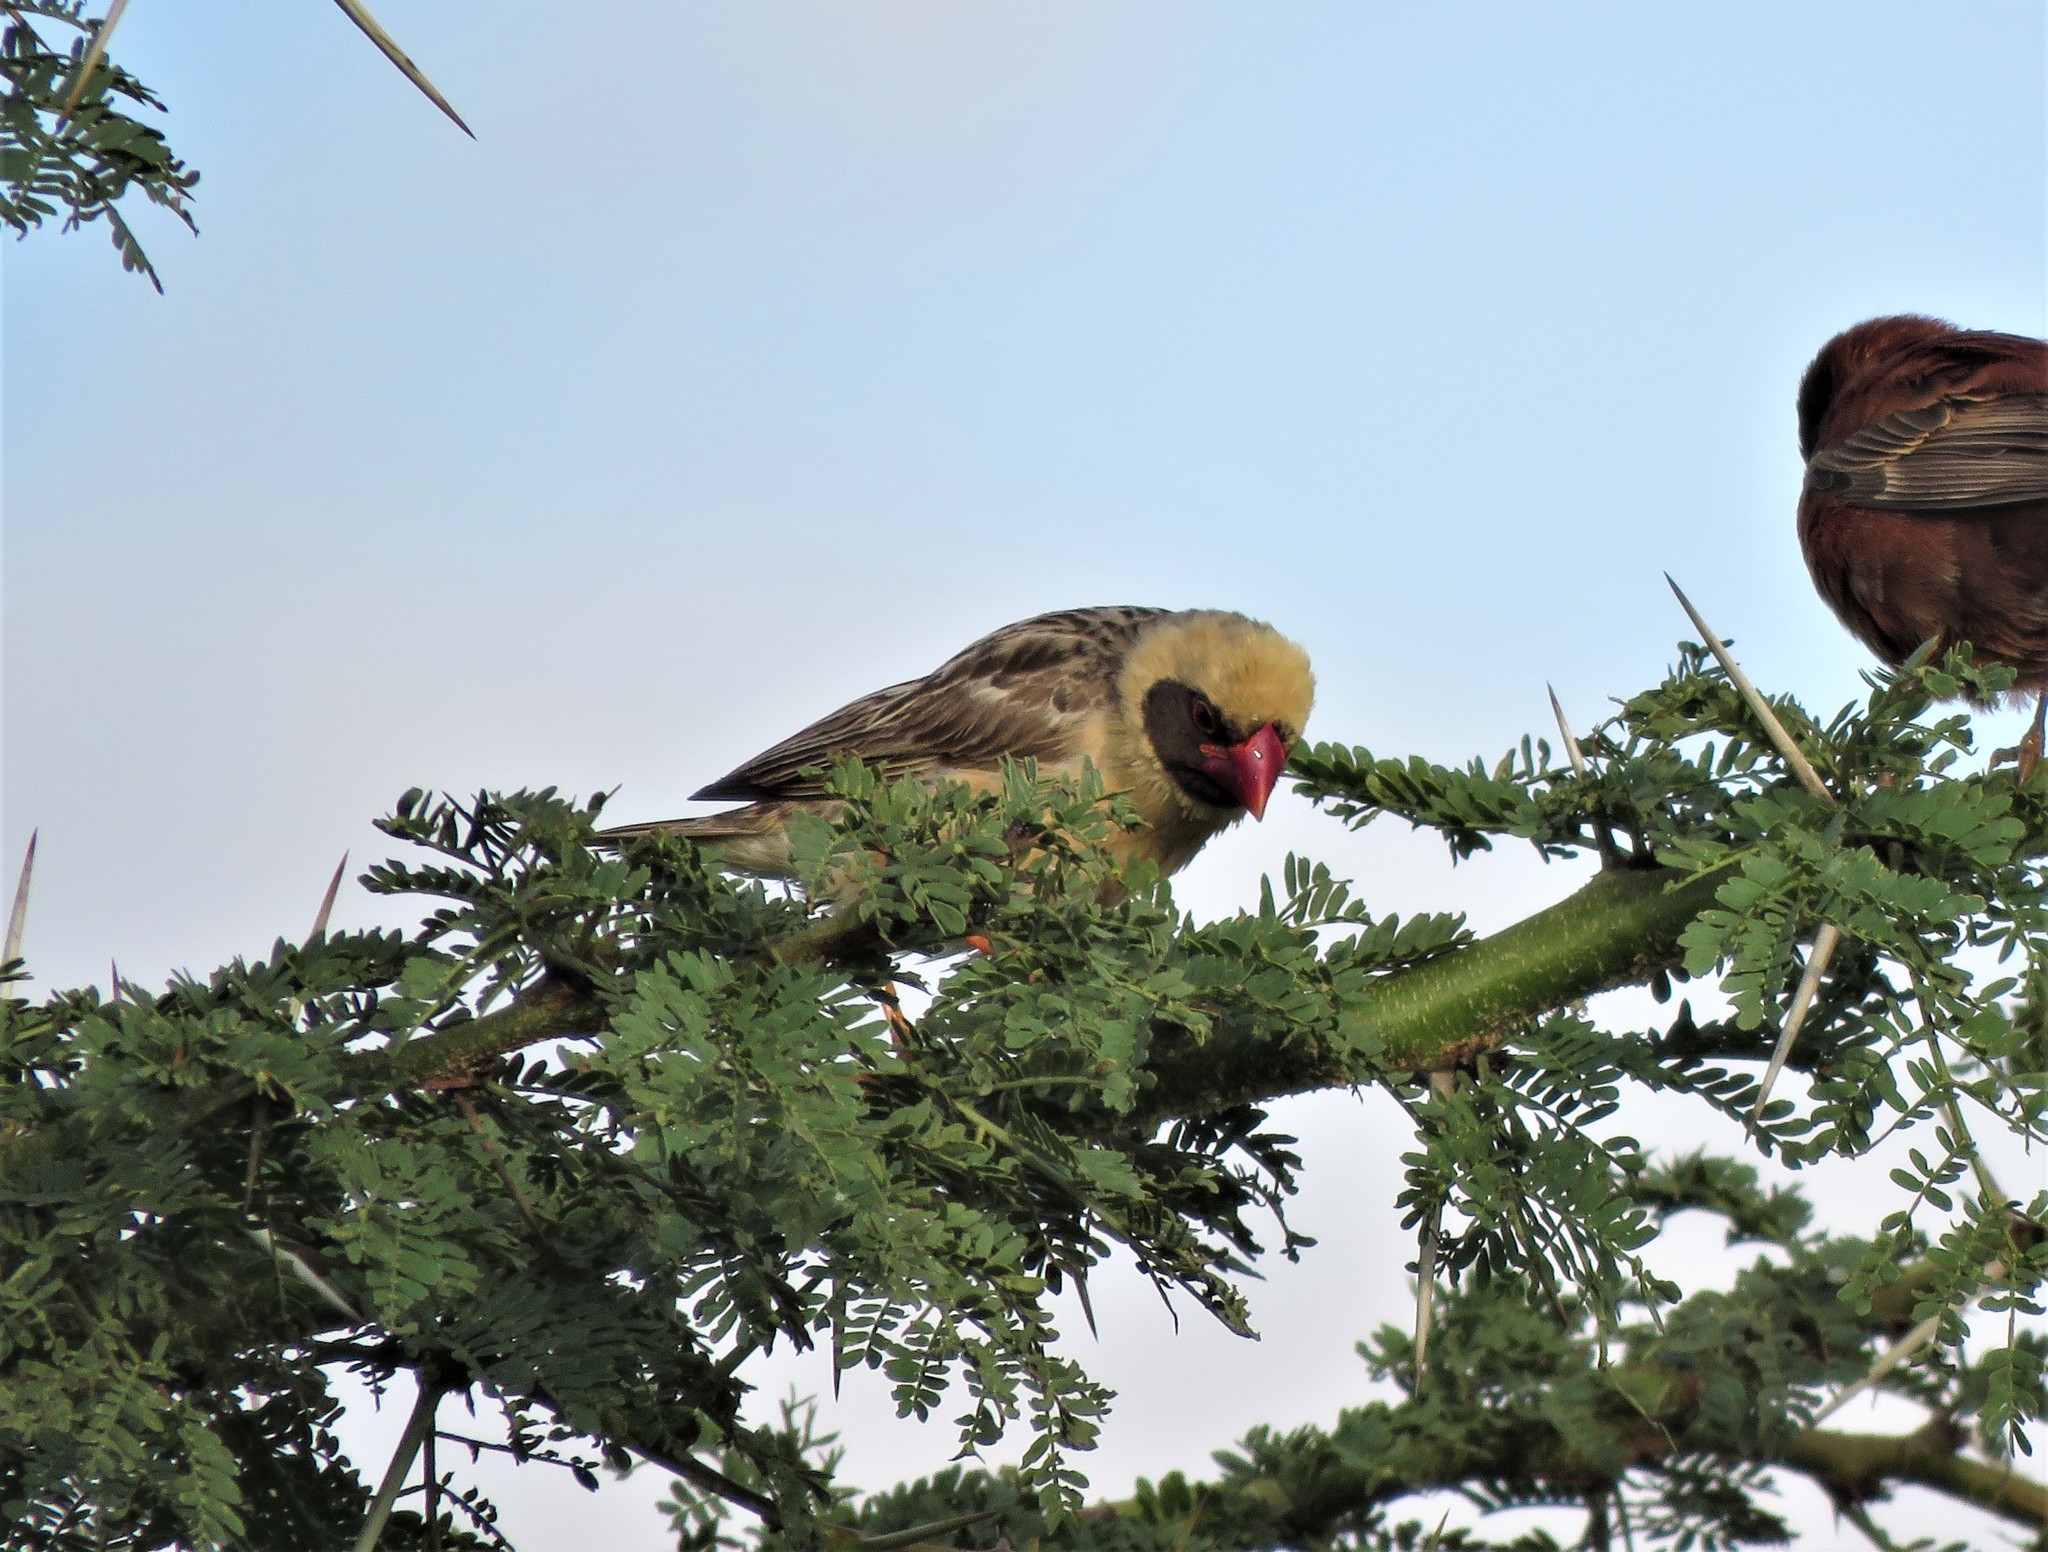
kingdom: Animalia
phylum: Chordata
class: Aves
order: Passeriformes
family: Ploceidae
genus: Quelea
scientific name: Quelea quelea
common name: Red-billed quelea
